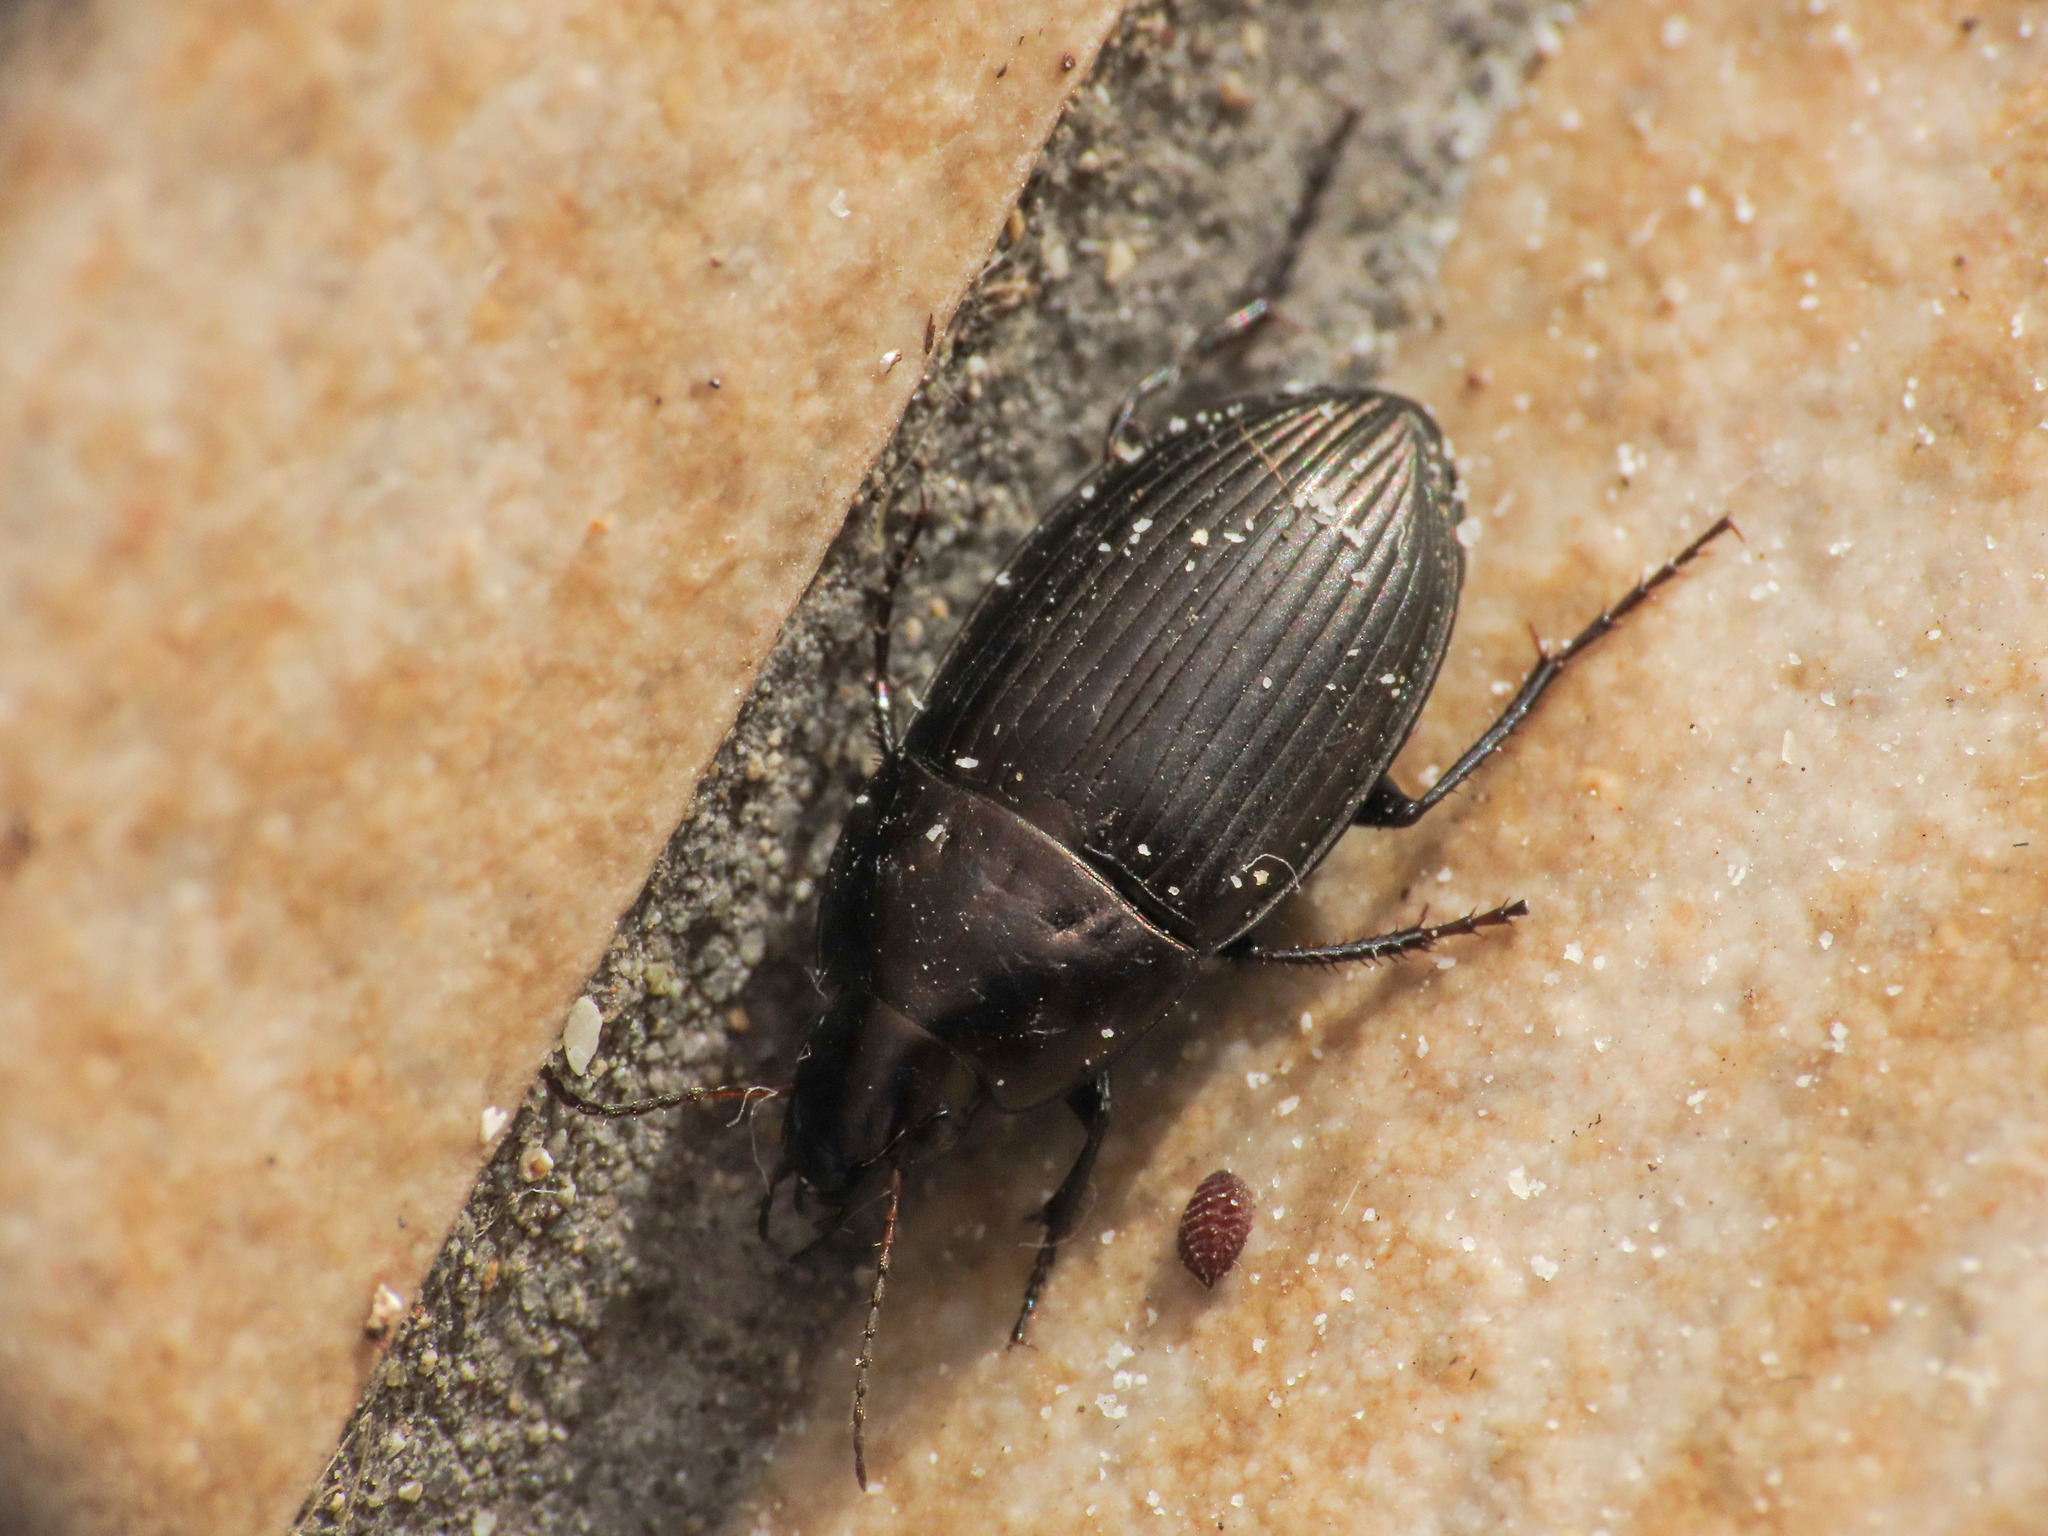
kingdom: Animalia
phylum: Arthropoda
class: Insecta
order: Coleoptera
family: Carabidae
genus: Amara
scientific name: Amara eurynota
